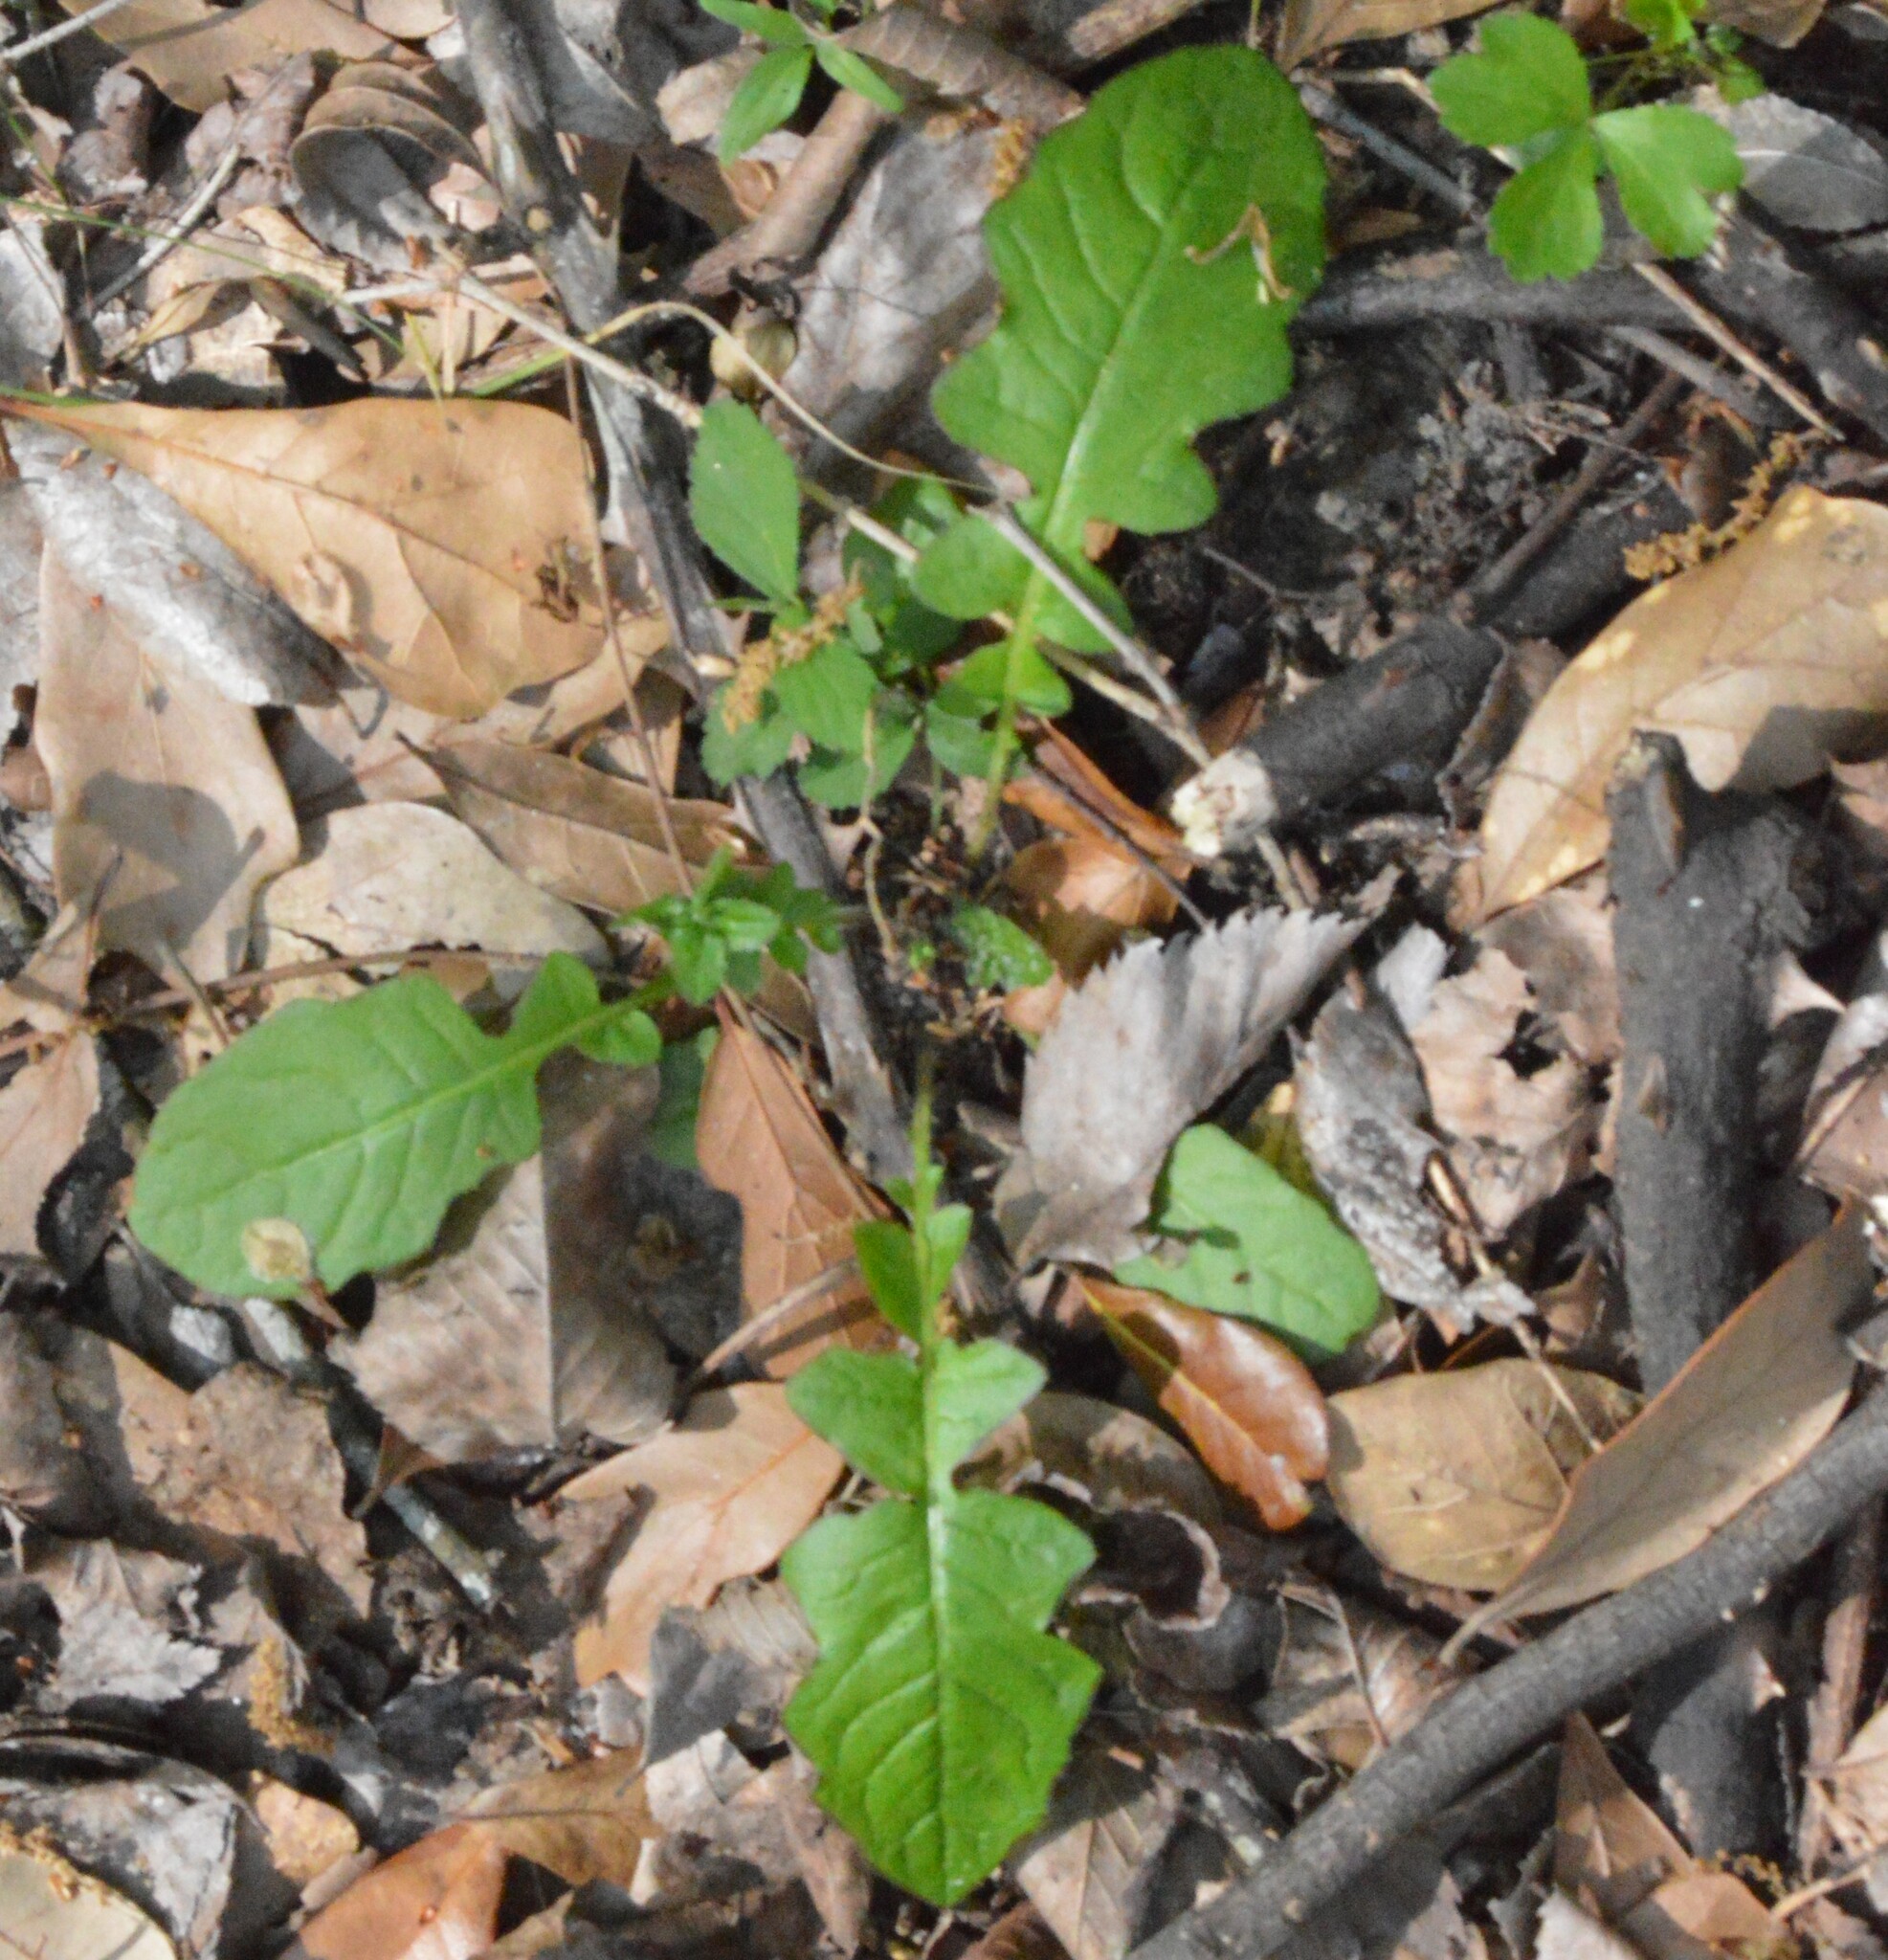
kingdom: Plantae
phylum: Tracheophyta
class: Magnoliopsida
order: Asterales
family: Asteraceae
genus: Youngia
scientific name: Youngia japonica
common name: Oriental false hawksbeard
